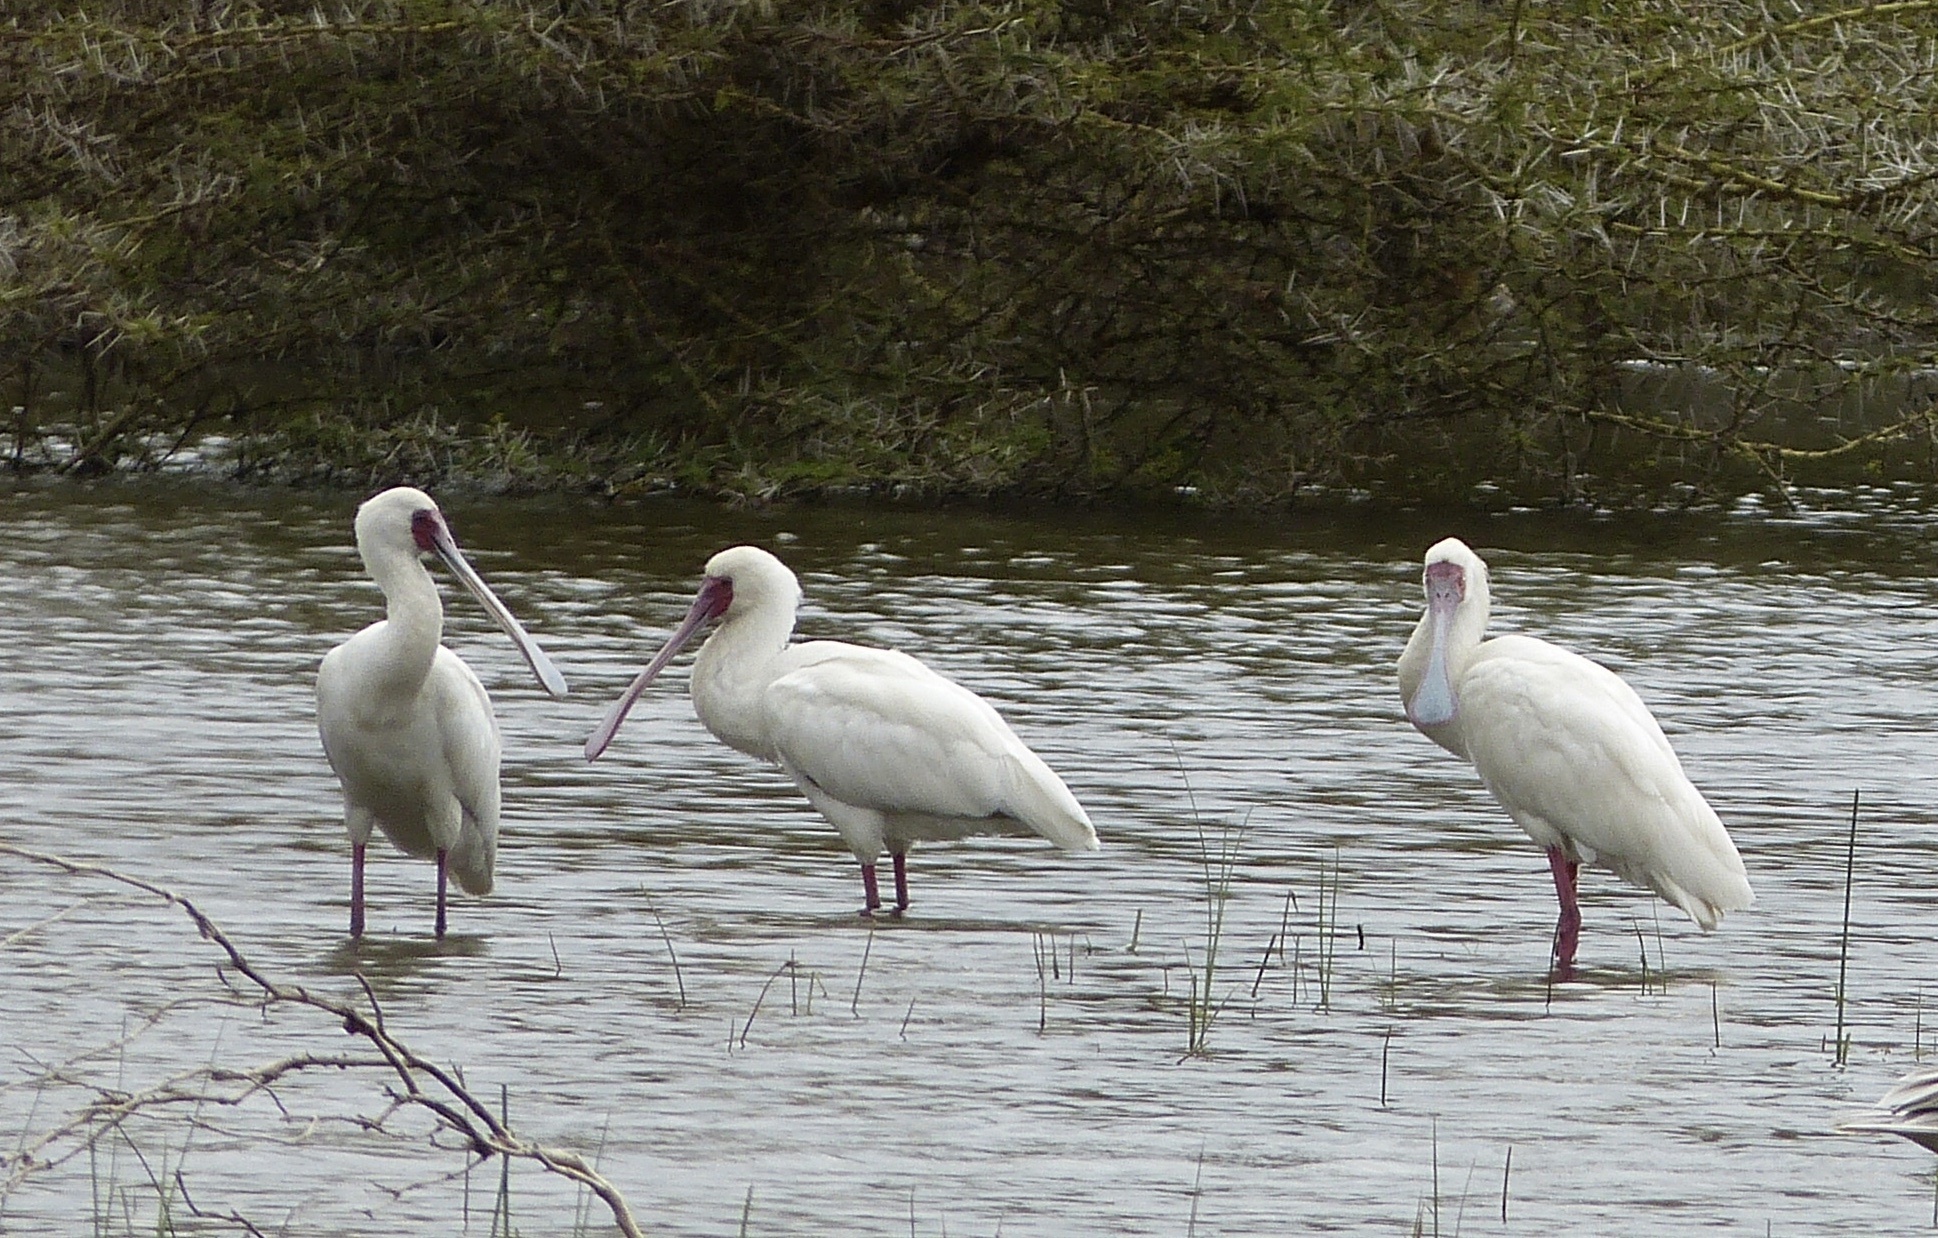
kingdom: Animalia
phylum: Chordata
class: Aves
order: Pelecaniformes
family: Threskiornithidae
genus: Platalea
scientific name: Platalea alba
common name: African spoonbill
